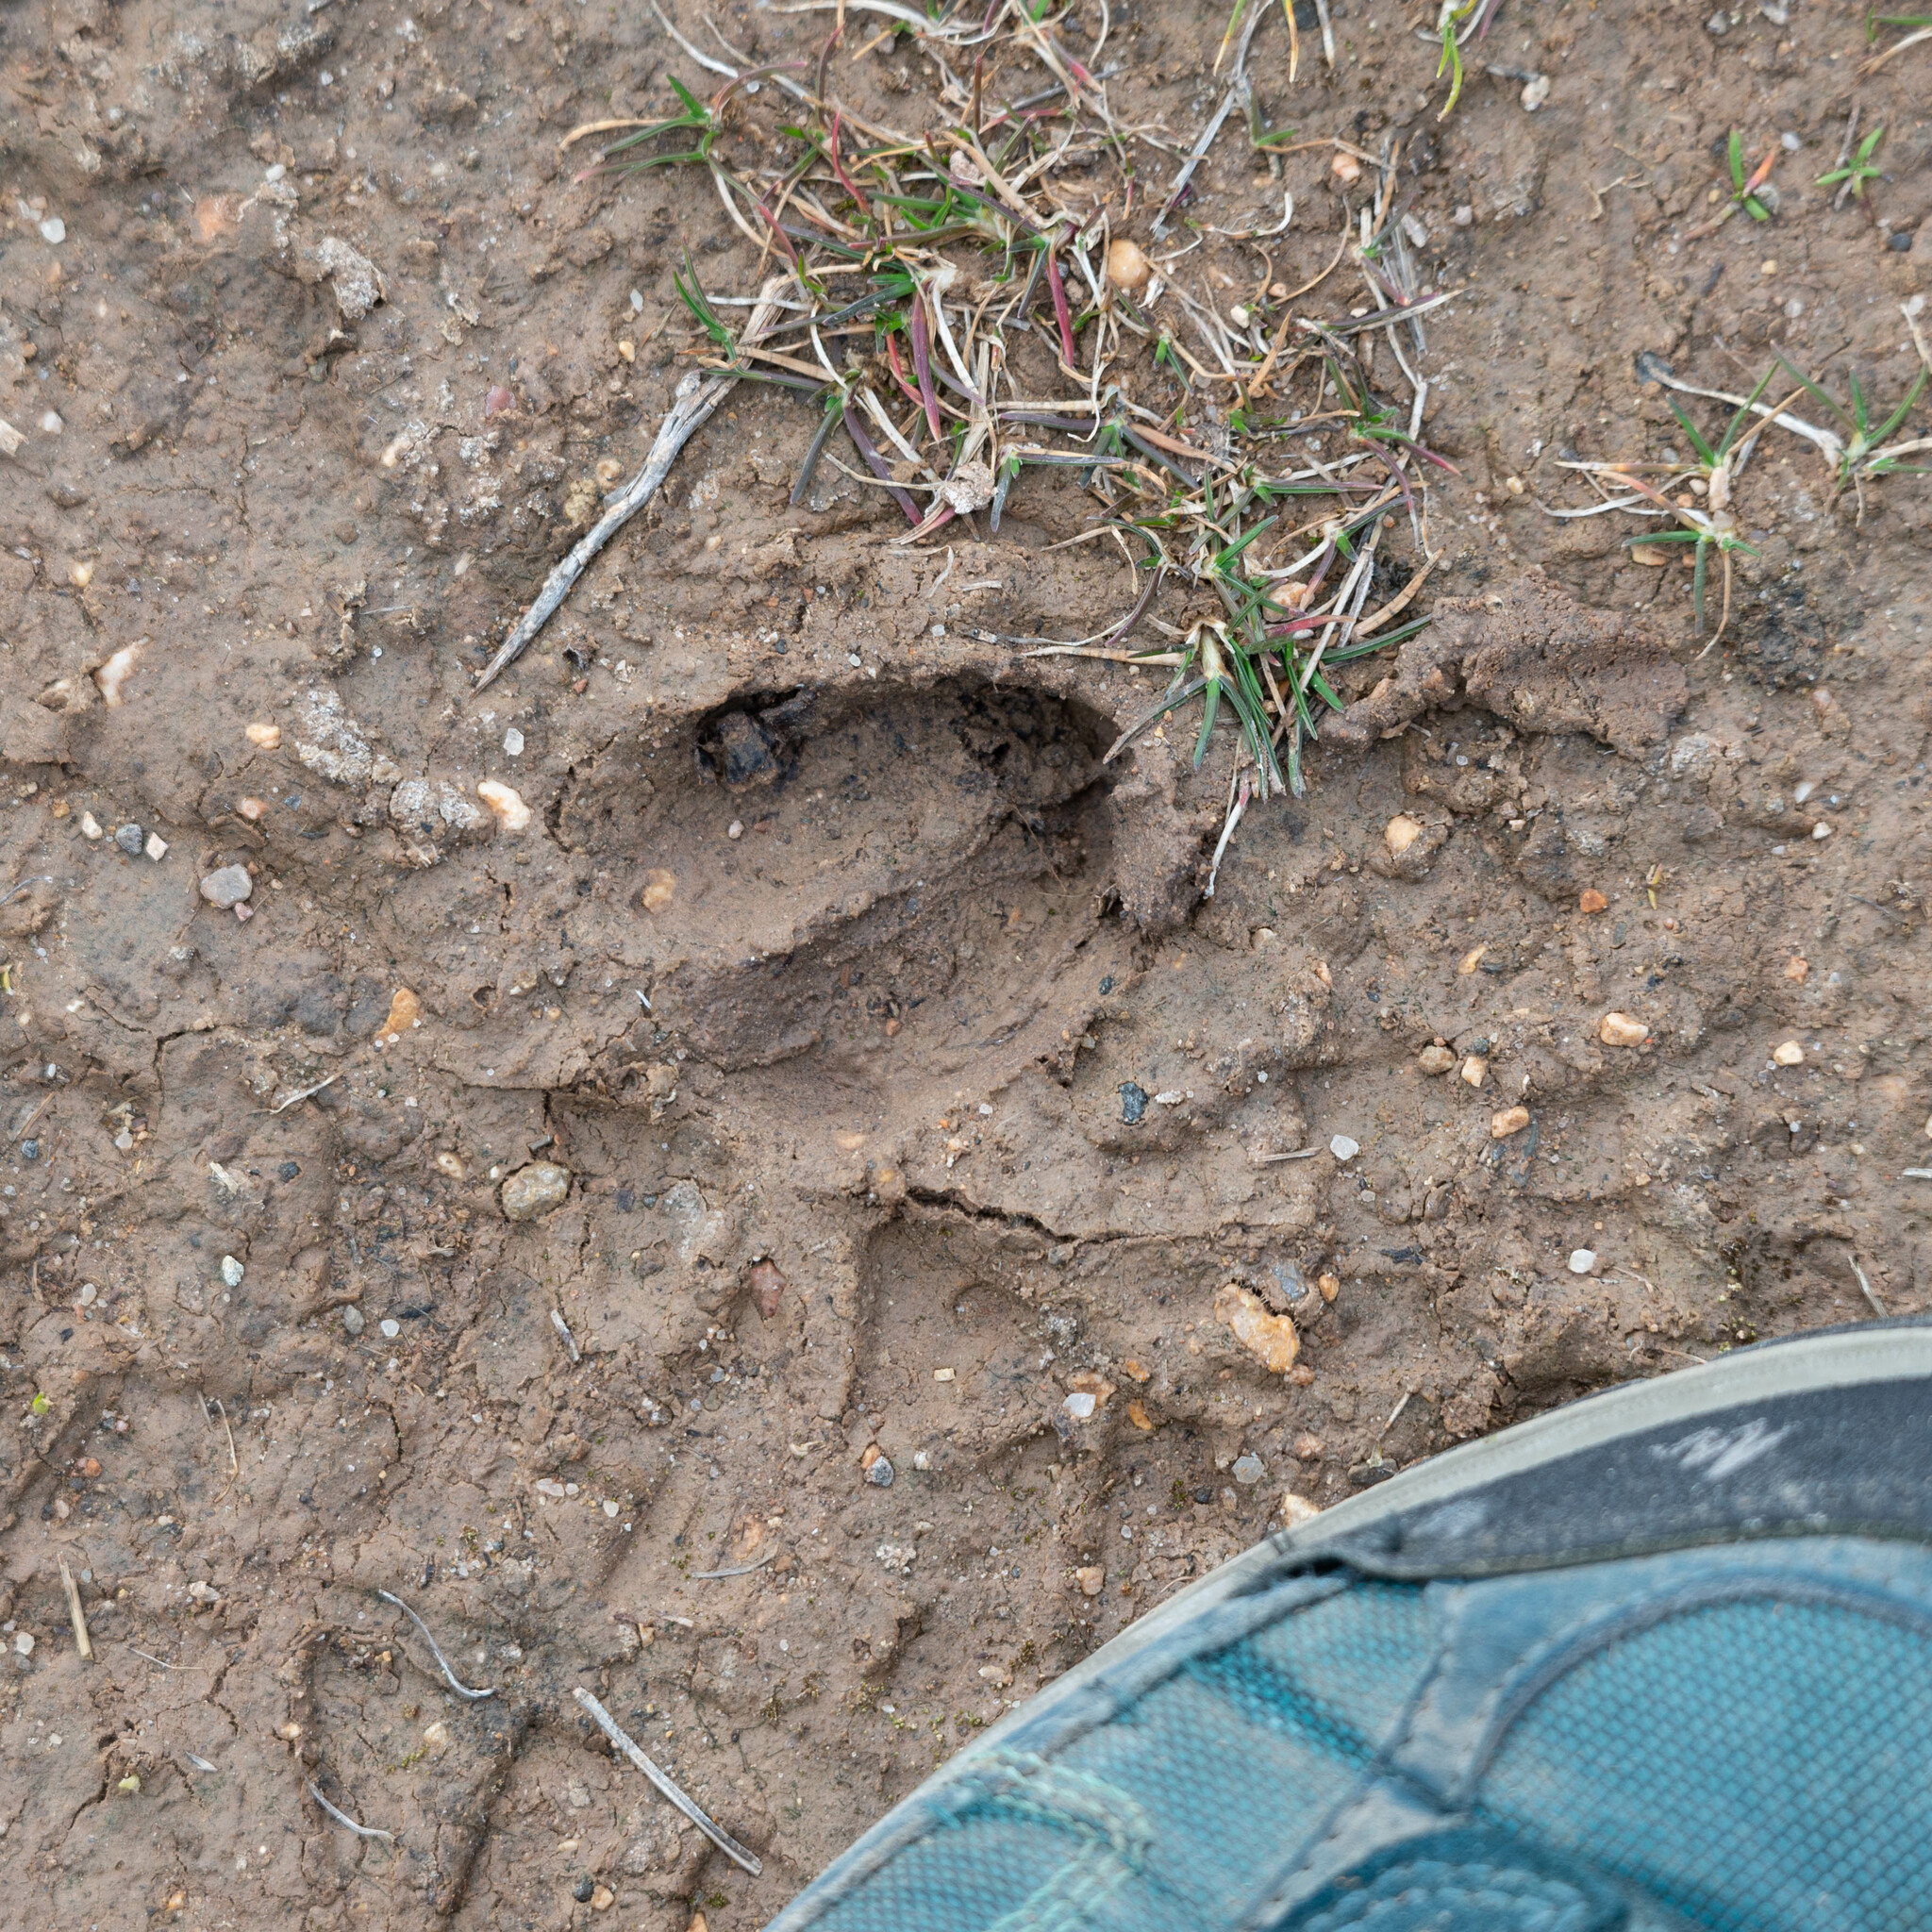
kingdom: Animalia
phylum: Chordata
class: Mammalia
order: Artiodactyla
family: Cervidae
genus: Capreolus
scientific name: Capreolus capreolus
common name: Western roe deer
